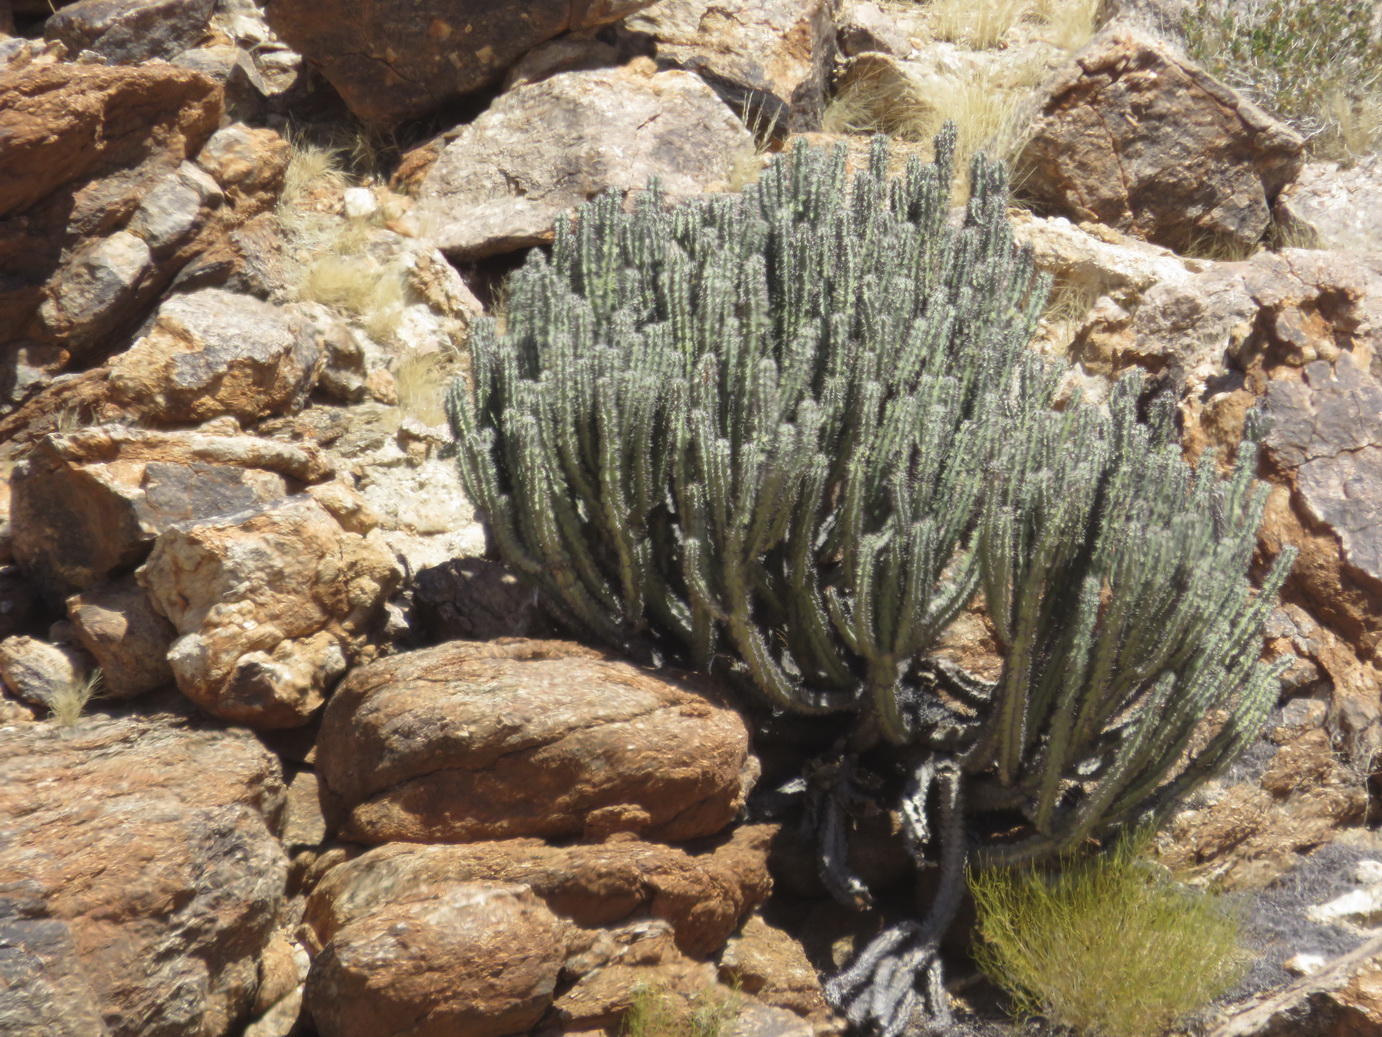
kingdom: Plantae
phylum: Tracheophyta
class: Magnoliopsida
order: Malpighiales
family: Euphorbiaceae
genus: Euphorbia
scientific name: Euphorbia virosa
